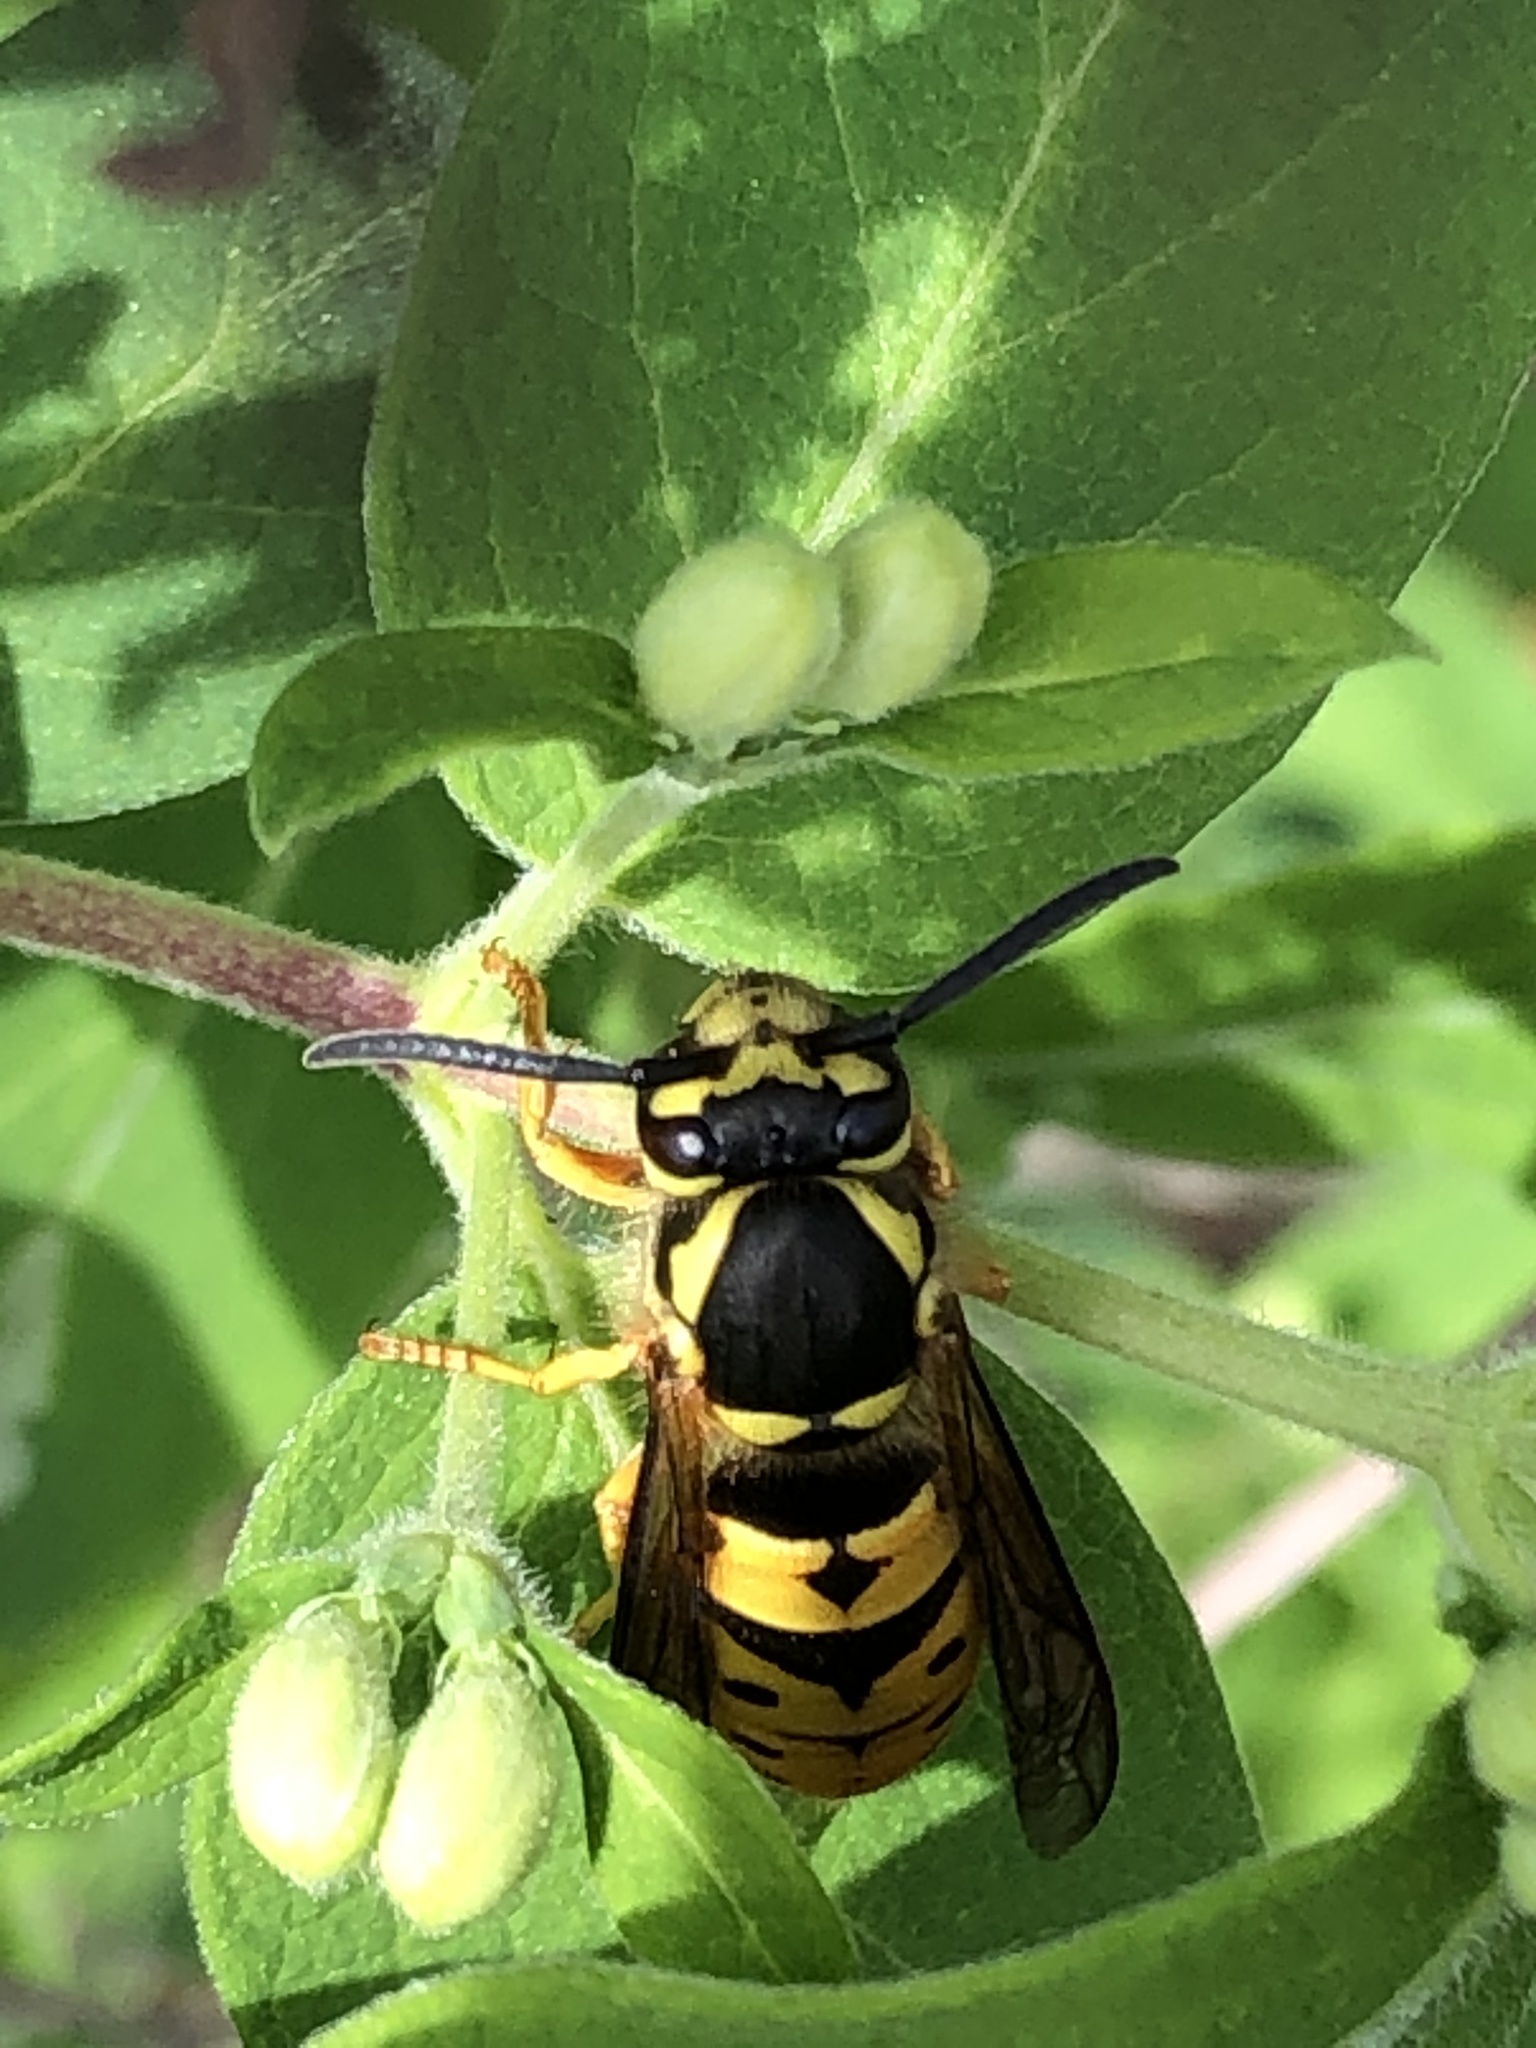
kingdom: Animalia
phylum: Arthropoda
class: Insecta
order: Hymenoptera
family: Vespidae
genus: Vespula
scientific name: Vespula maculifrons
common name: Eastern yellowjacket
